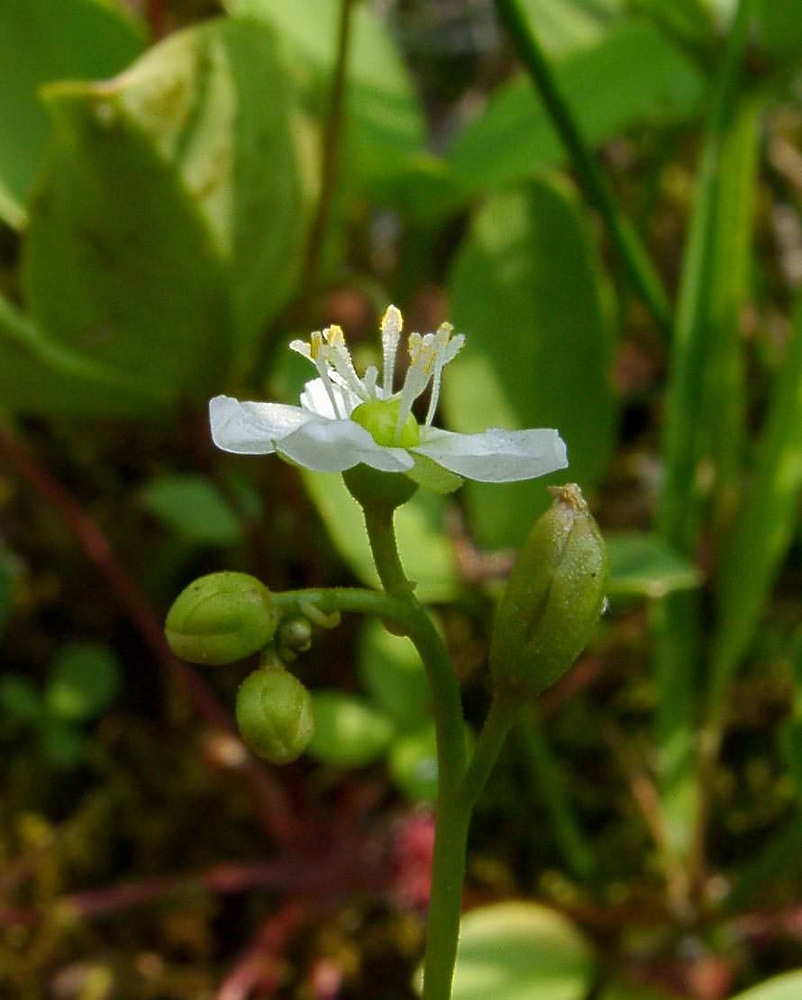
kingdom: Plantae
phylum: Tracheophyta
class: Magnoliopsida
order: Caryophyllales
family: Droseraceae
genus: Drosera
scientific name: Drosera anglica
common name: Great sundew
